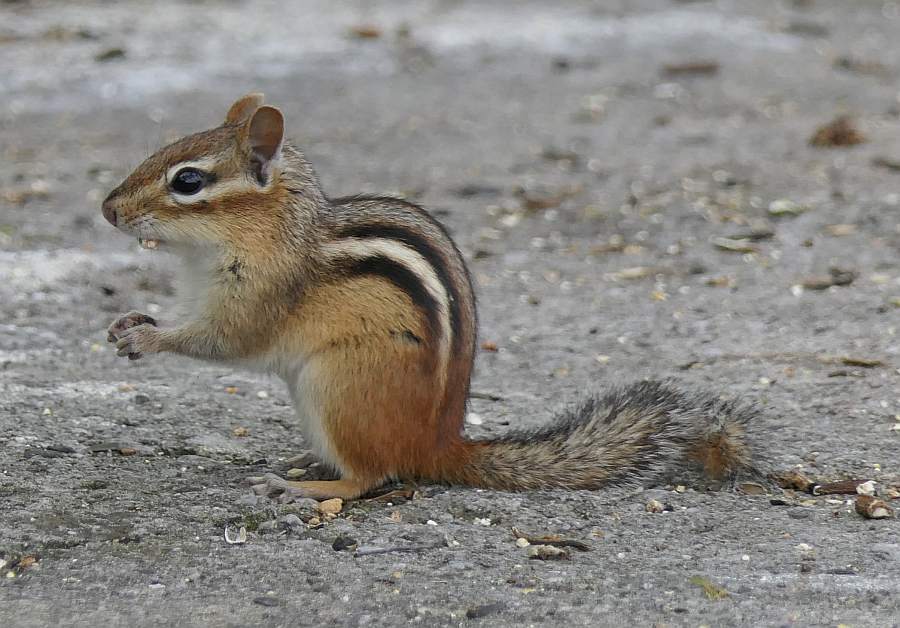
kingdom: Animalia
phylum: Chordata
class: Mammalia
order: Rodentia
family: Sciuridae
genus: Tamias
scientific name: Tamias striatus
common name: Eastern chipmunk
